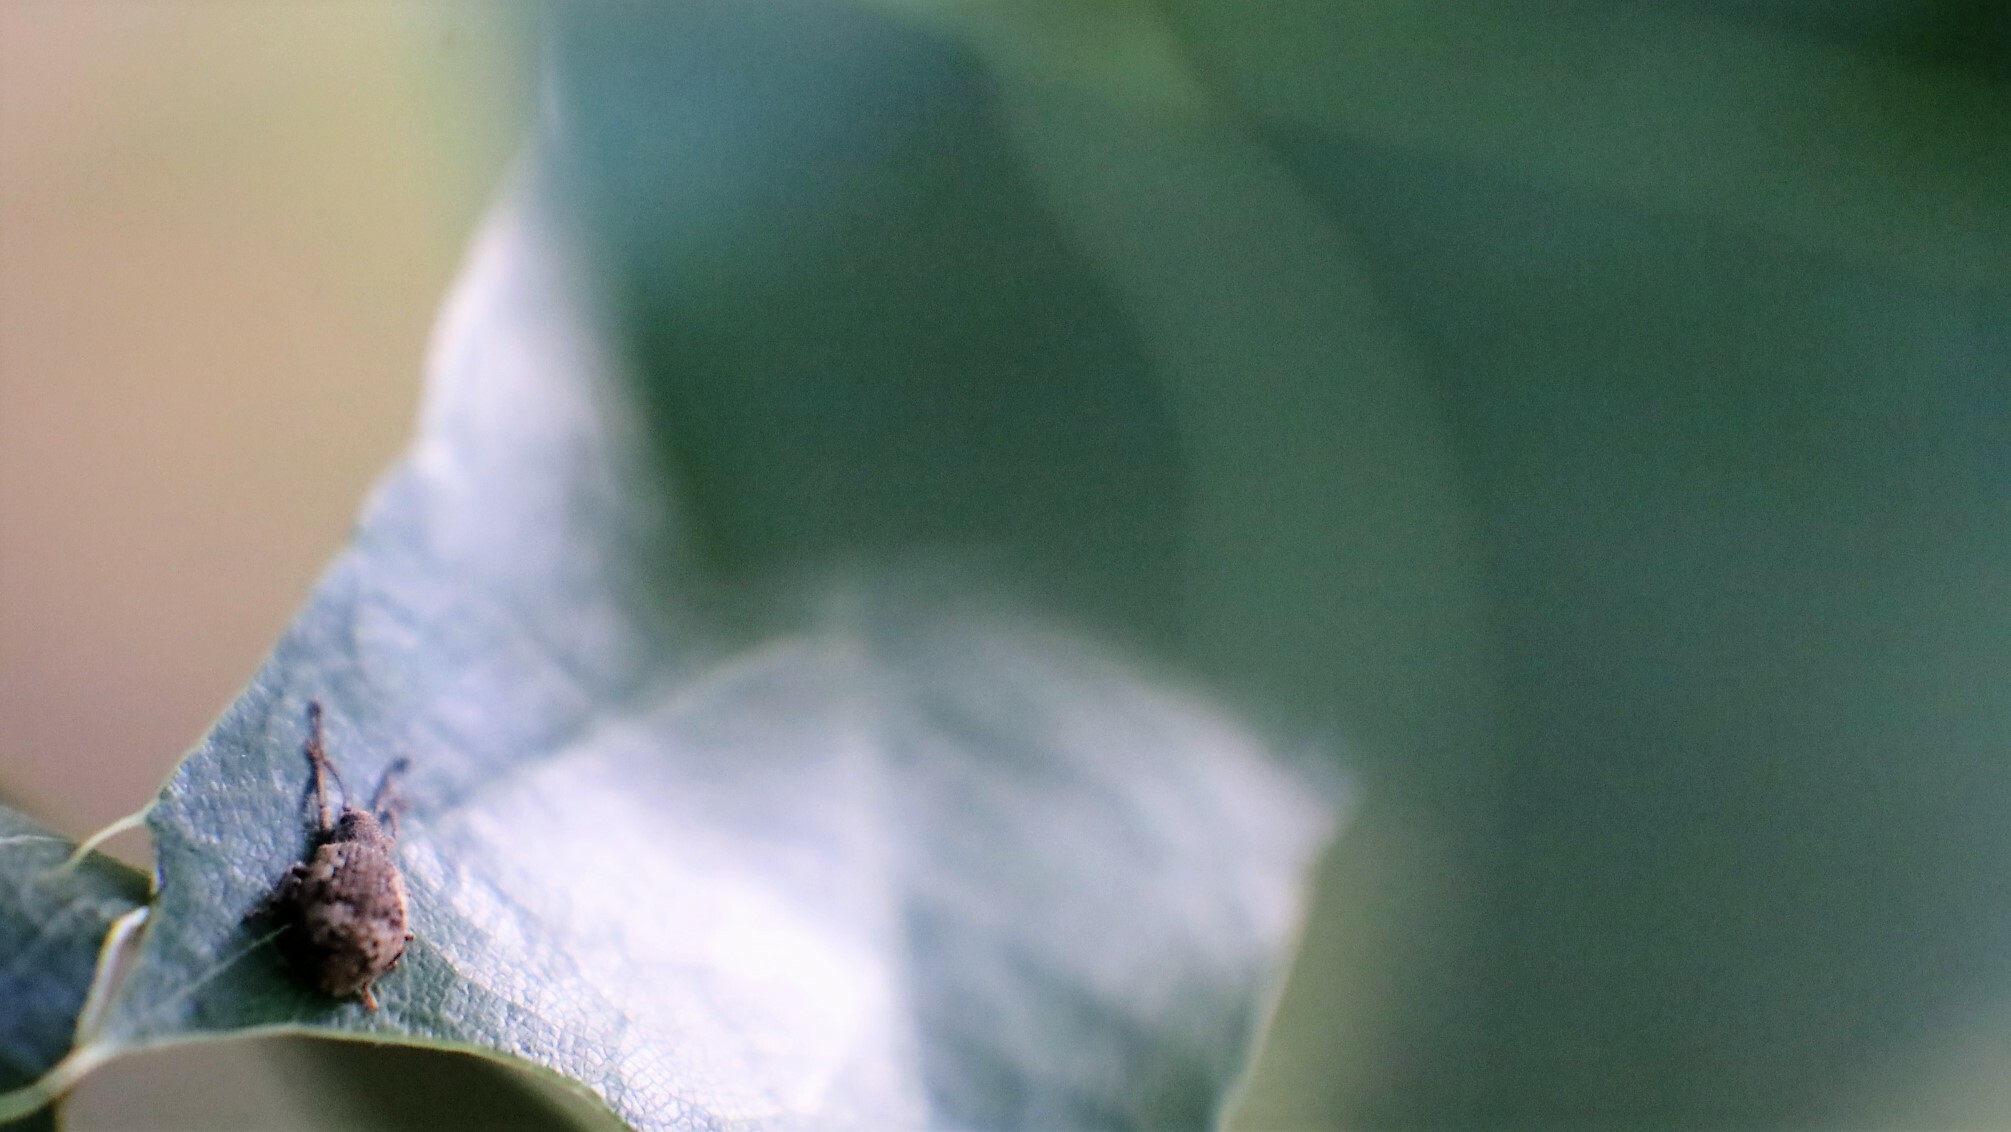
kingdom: Animalia
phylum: Arthropoda
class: Insecta
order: Coleoptera
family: Curculionidae
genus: Pseudoedophrys
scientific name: Pseudoedophrys hilleri
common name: Weevil
